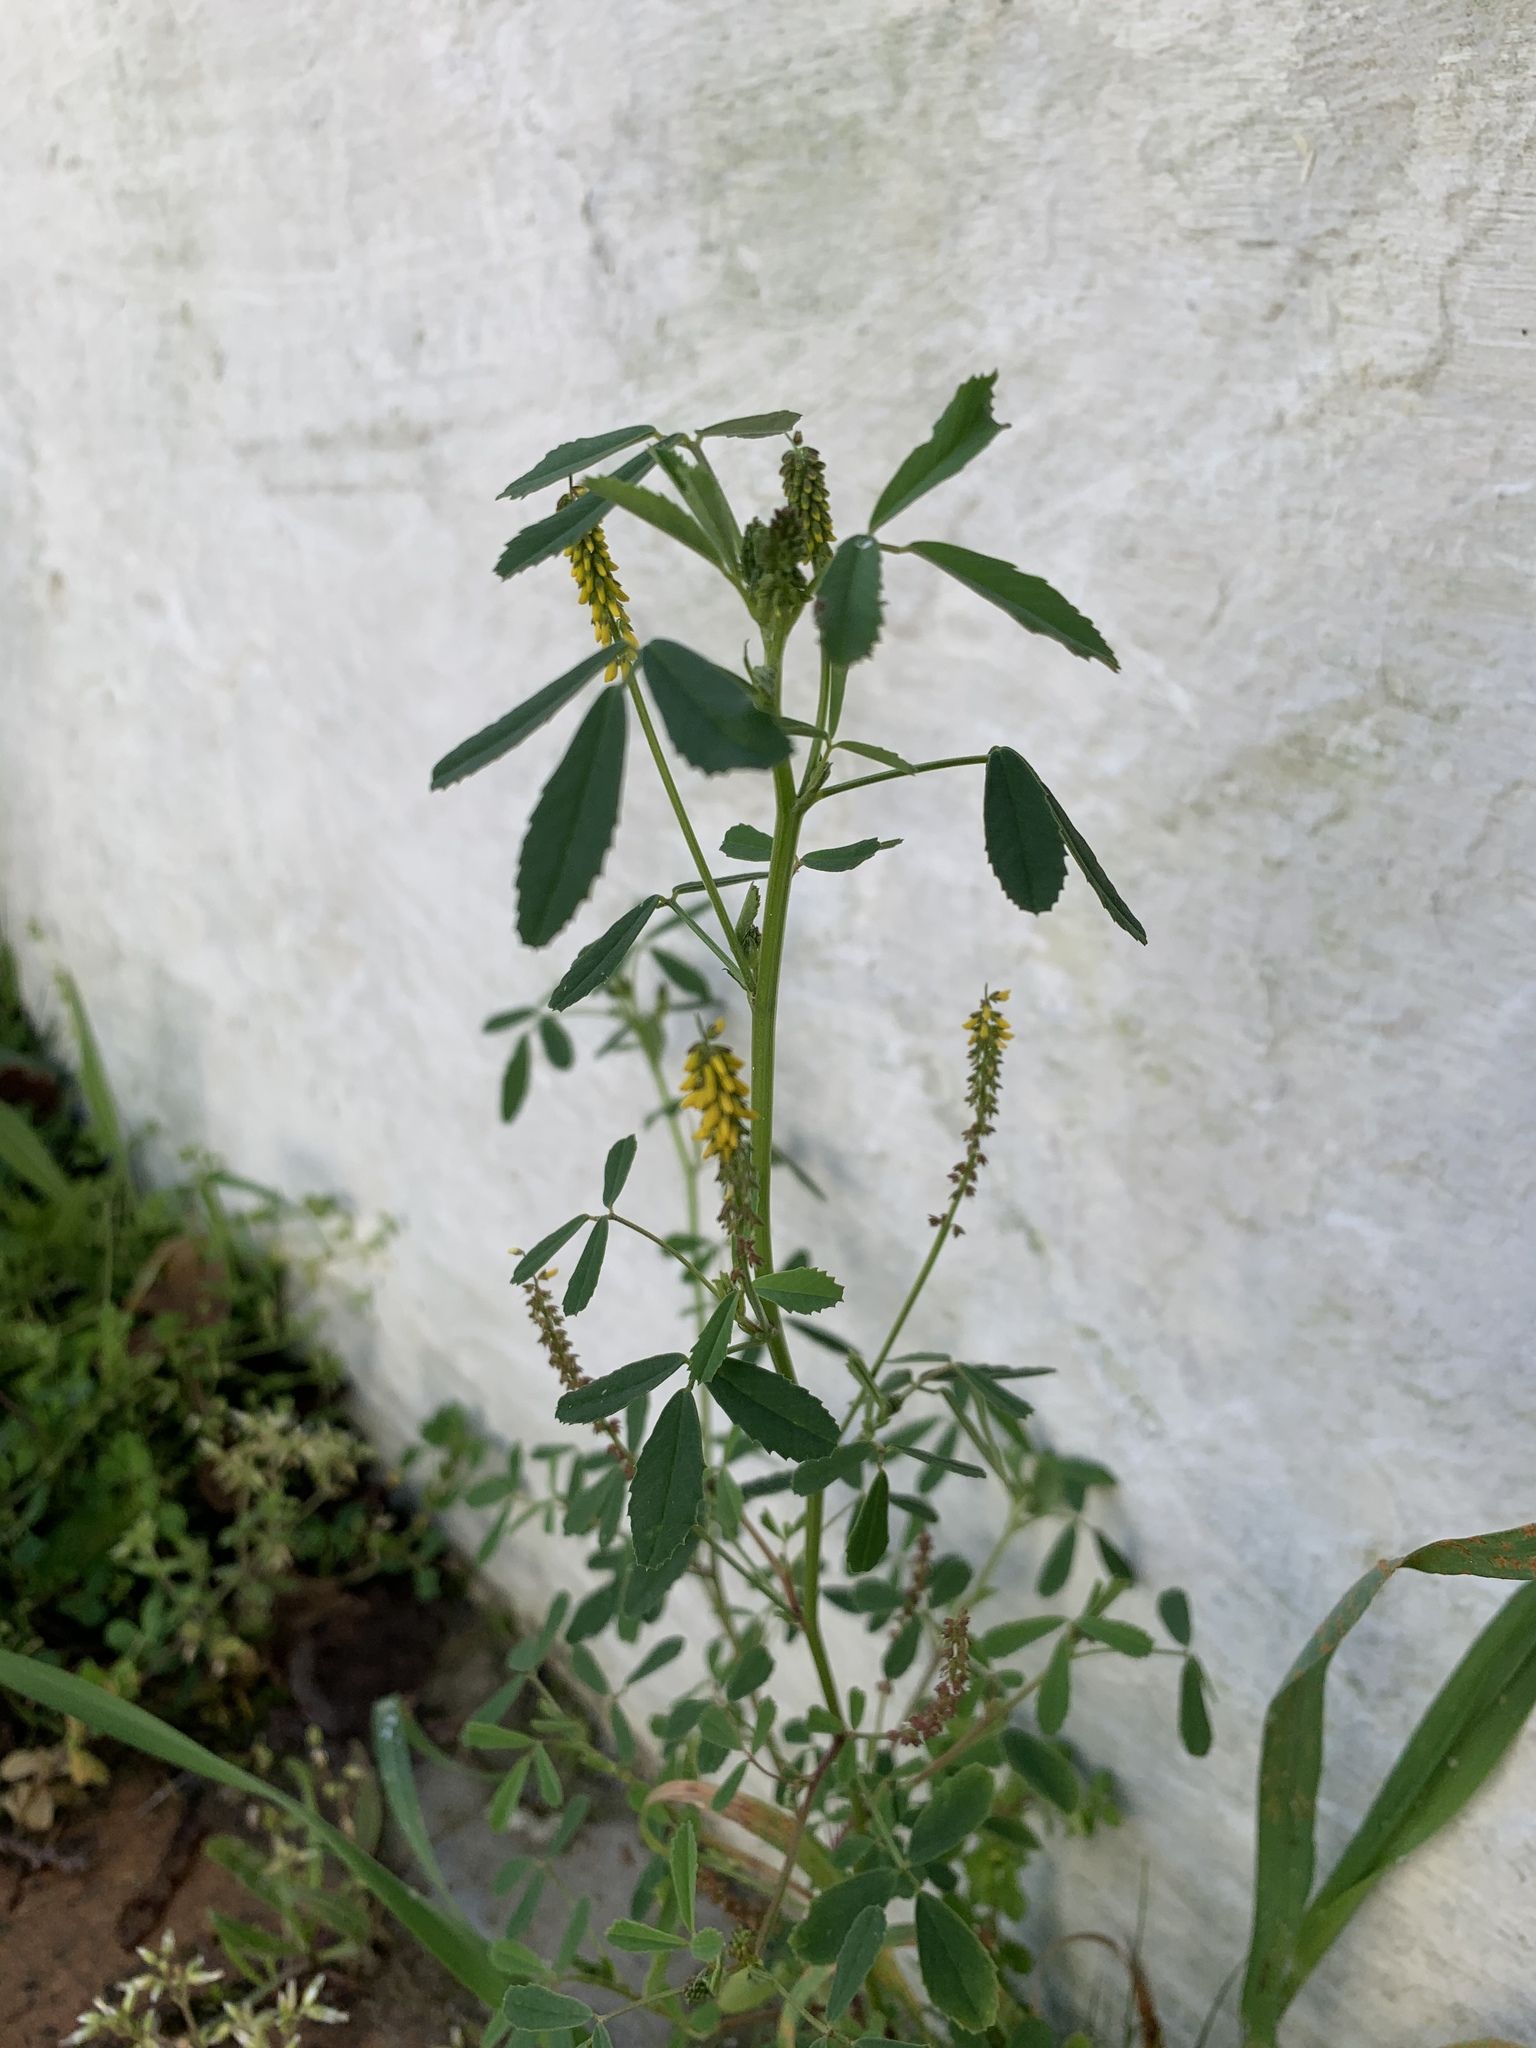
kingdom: Plantae
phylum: Tracheophyta
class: Magnoliopsida
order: Fabales
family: Fabaceae
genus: Melilotus
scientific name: Melilotus indicus
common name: Small melilot
